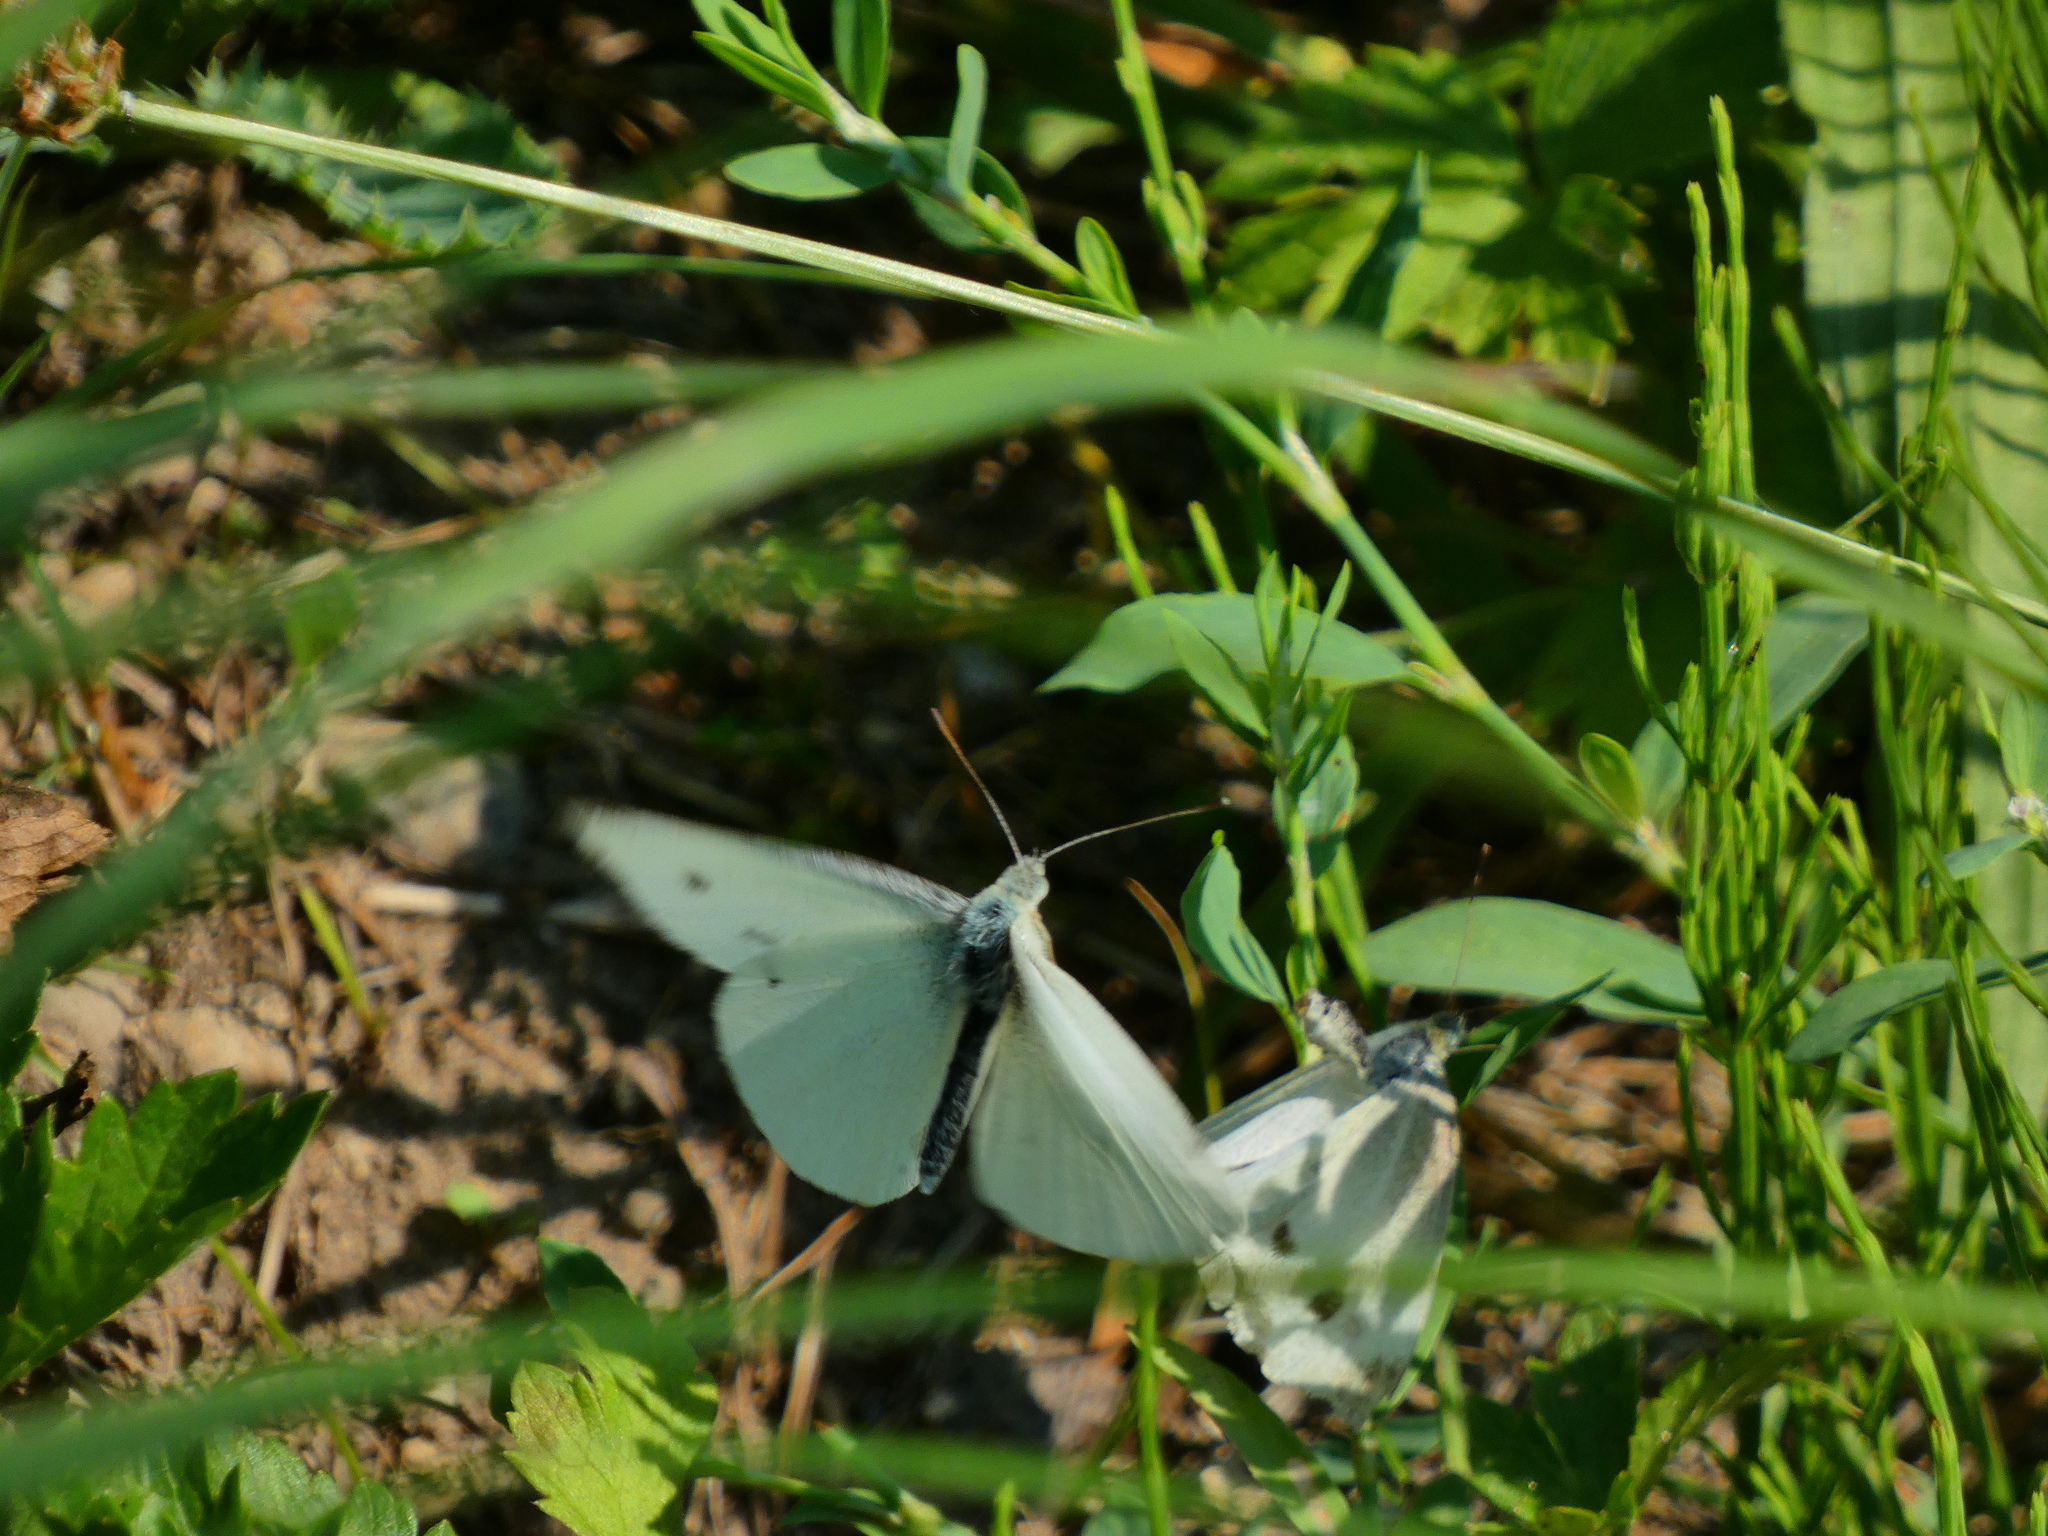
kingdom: Animalia
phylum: Arthropoda
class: Insecta
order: Lepidoptera
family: Pieridae
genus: Pieris
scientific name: Pieris rapae
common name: Small white
